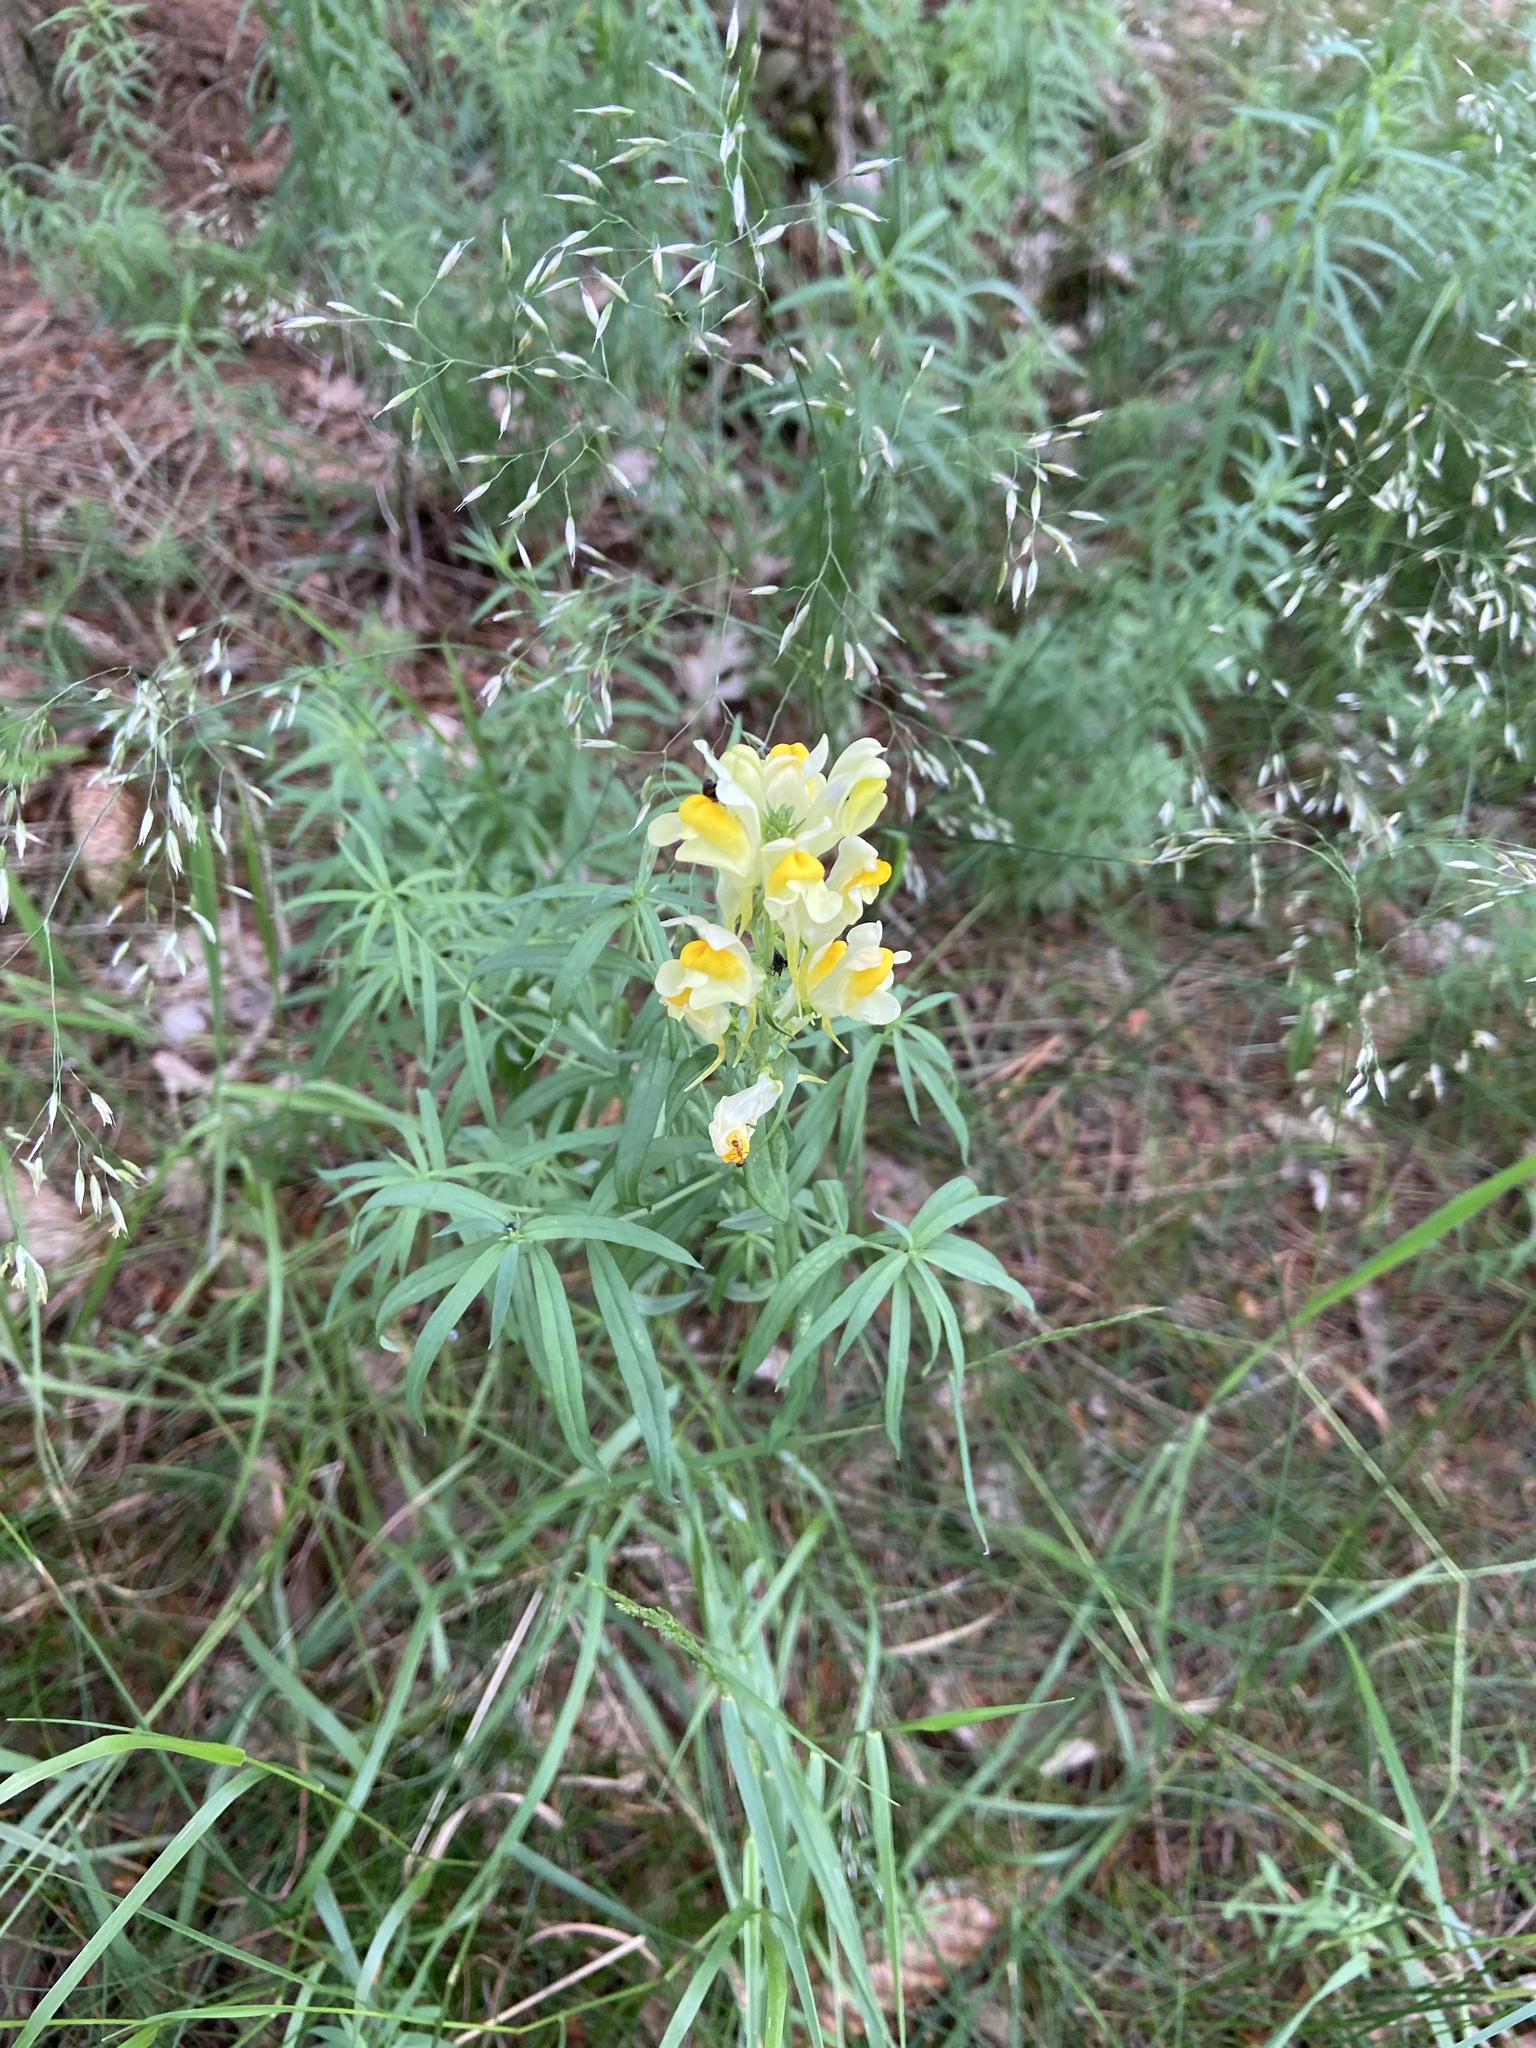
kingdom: Plantae
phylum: Tracheophyta
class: Magnoliopsida
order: Lamiales
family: Plantaginaceae
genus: Linaria
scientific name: Linaria vulgaris
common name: Butter and eggs
